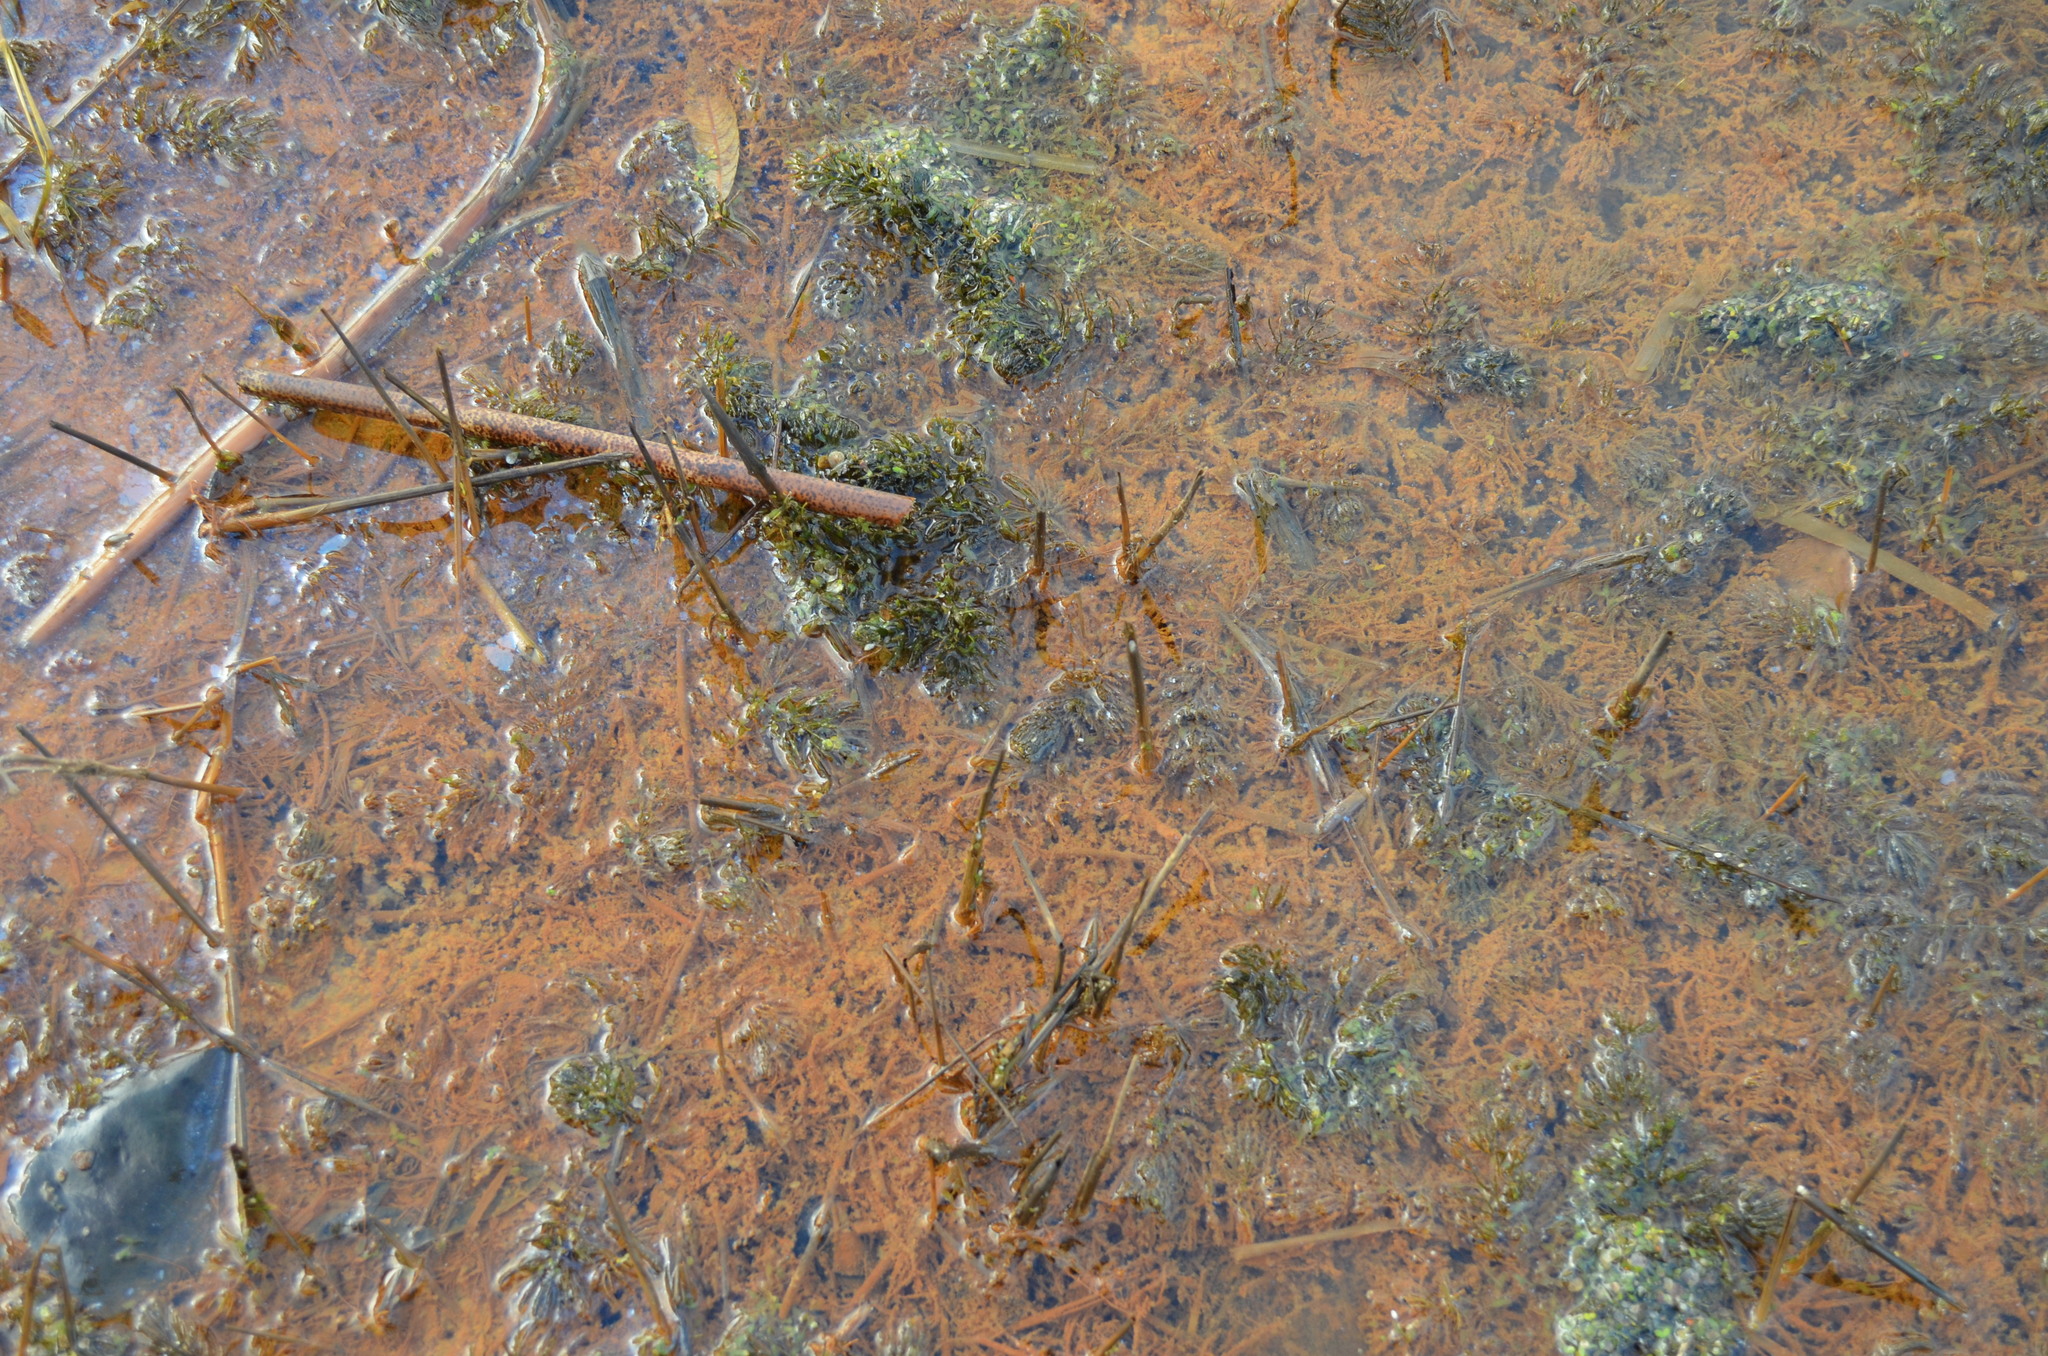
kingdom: Plantae
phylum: Tracheophyta
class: Magnoliopsida
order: Ceratophyllales
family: Ceratophyllaceae
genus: Ceratophyllum
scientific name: Ceratophyllum demersum
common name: Rigid hornwort
